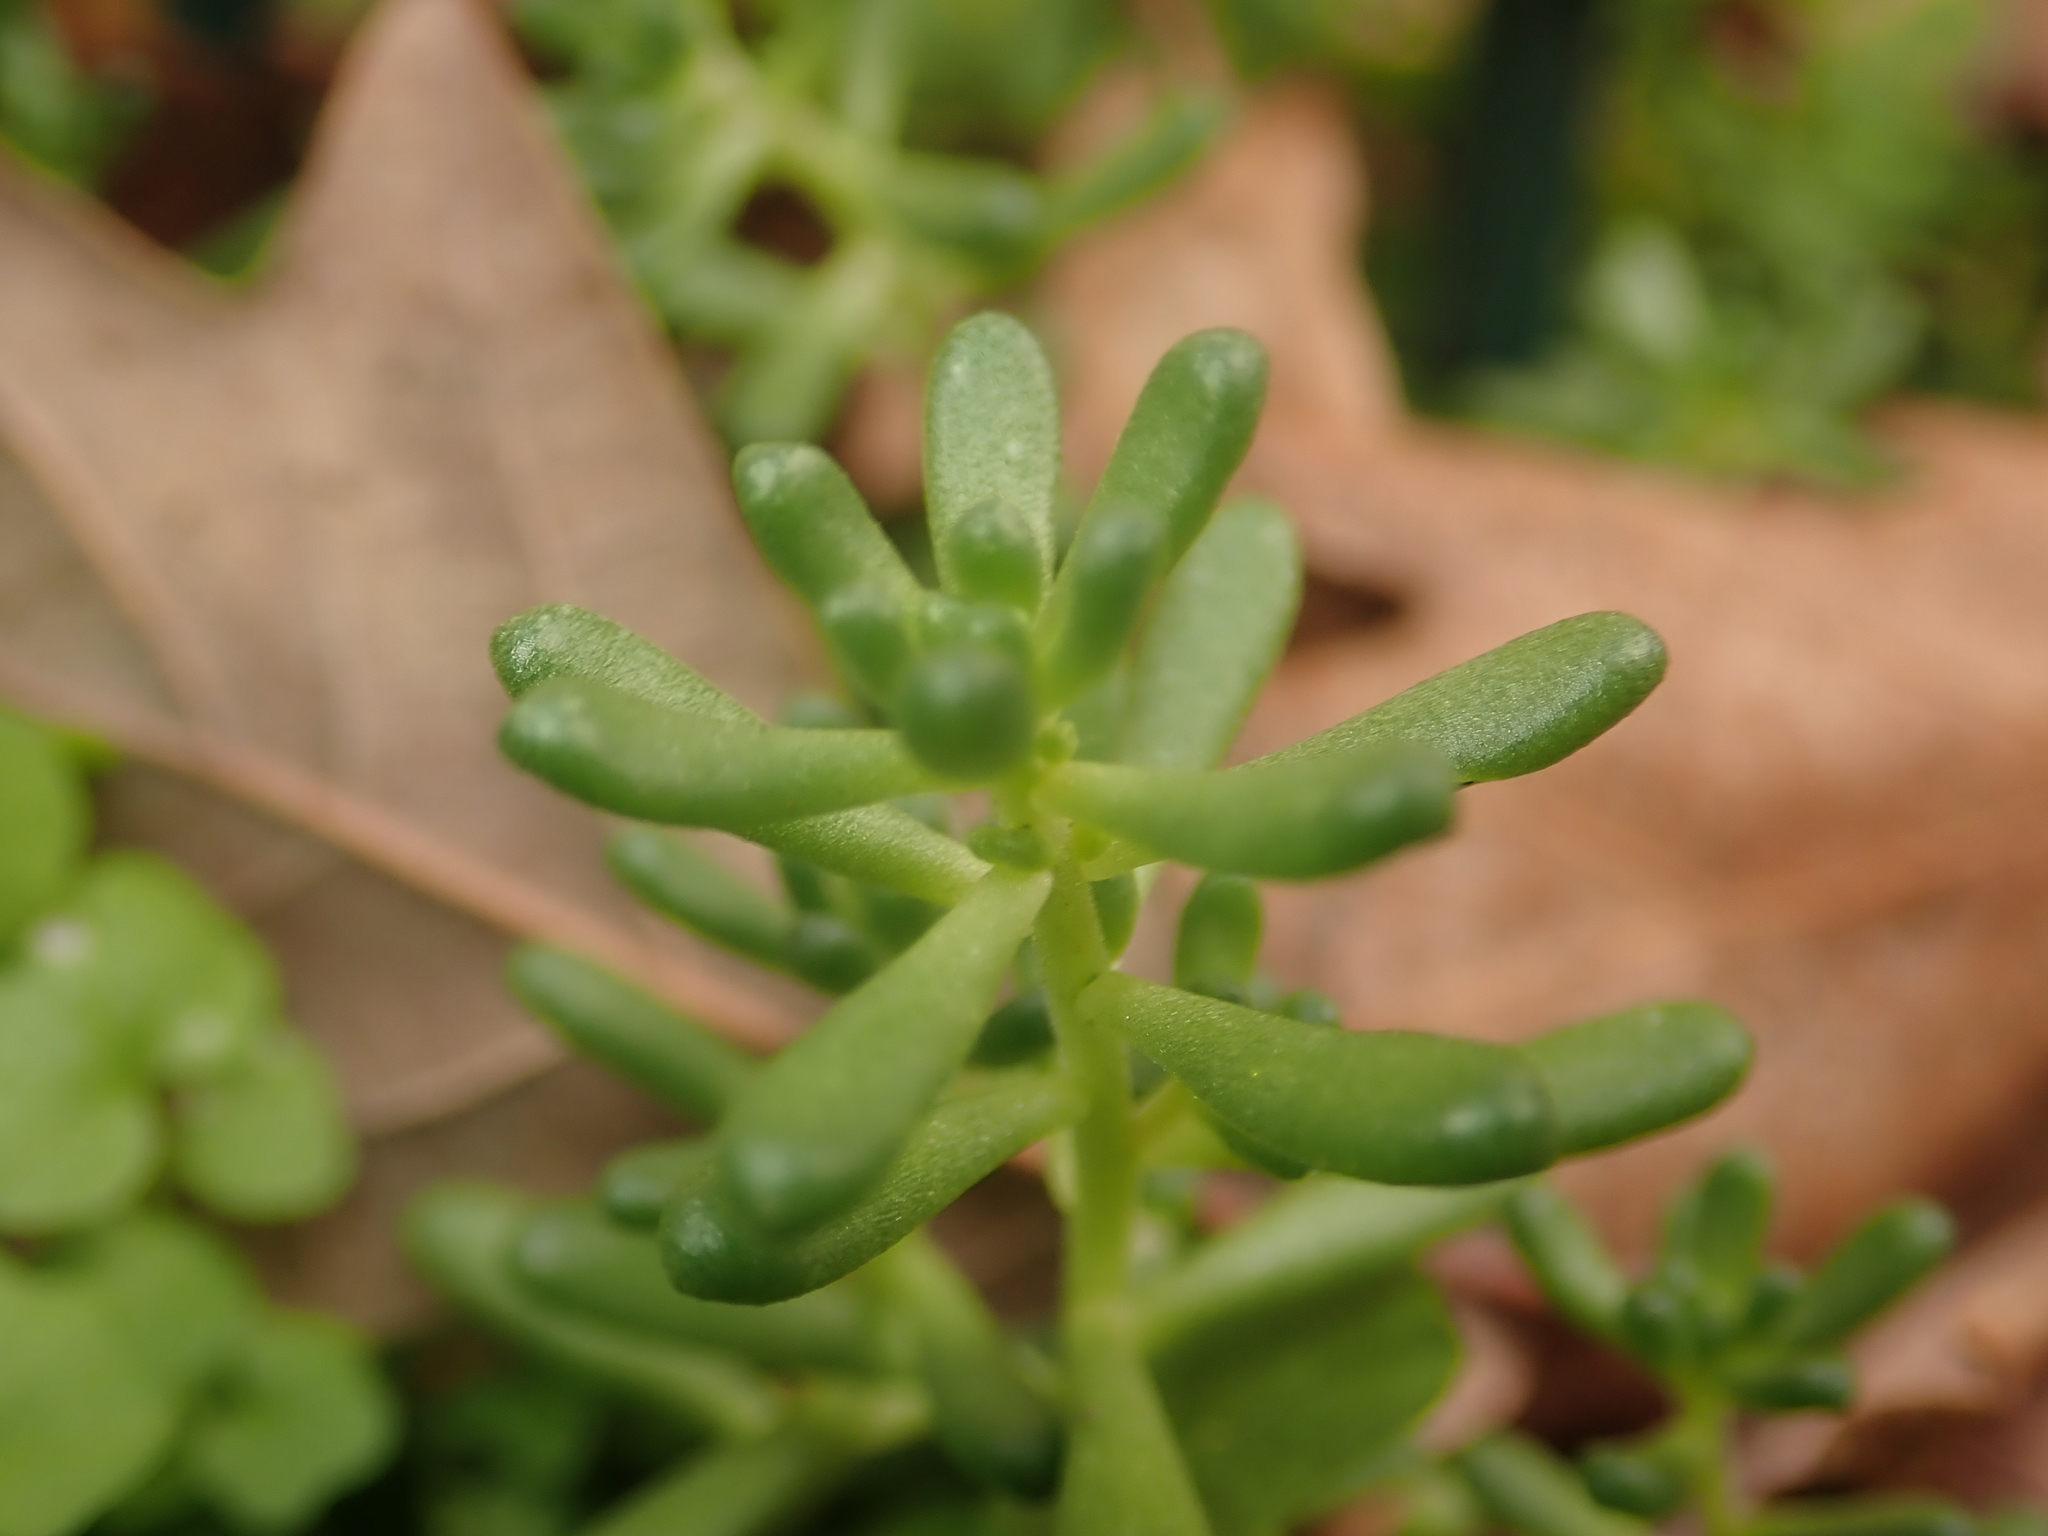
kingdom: Plantae
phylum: Tracheophyta
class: Magnoliopsida
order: Saxifragales
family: Crassulaceae
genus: Sedum
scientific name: Sedum album
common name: White stonecrop
